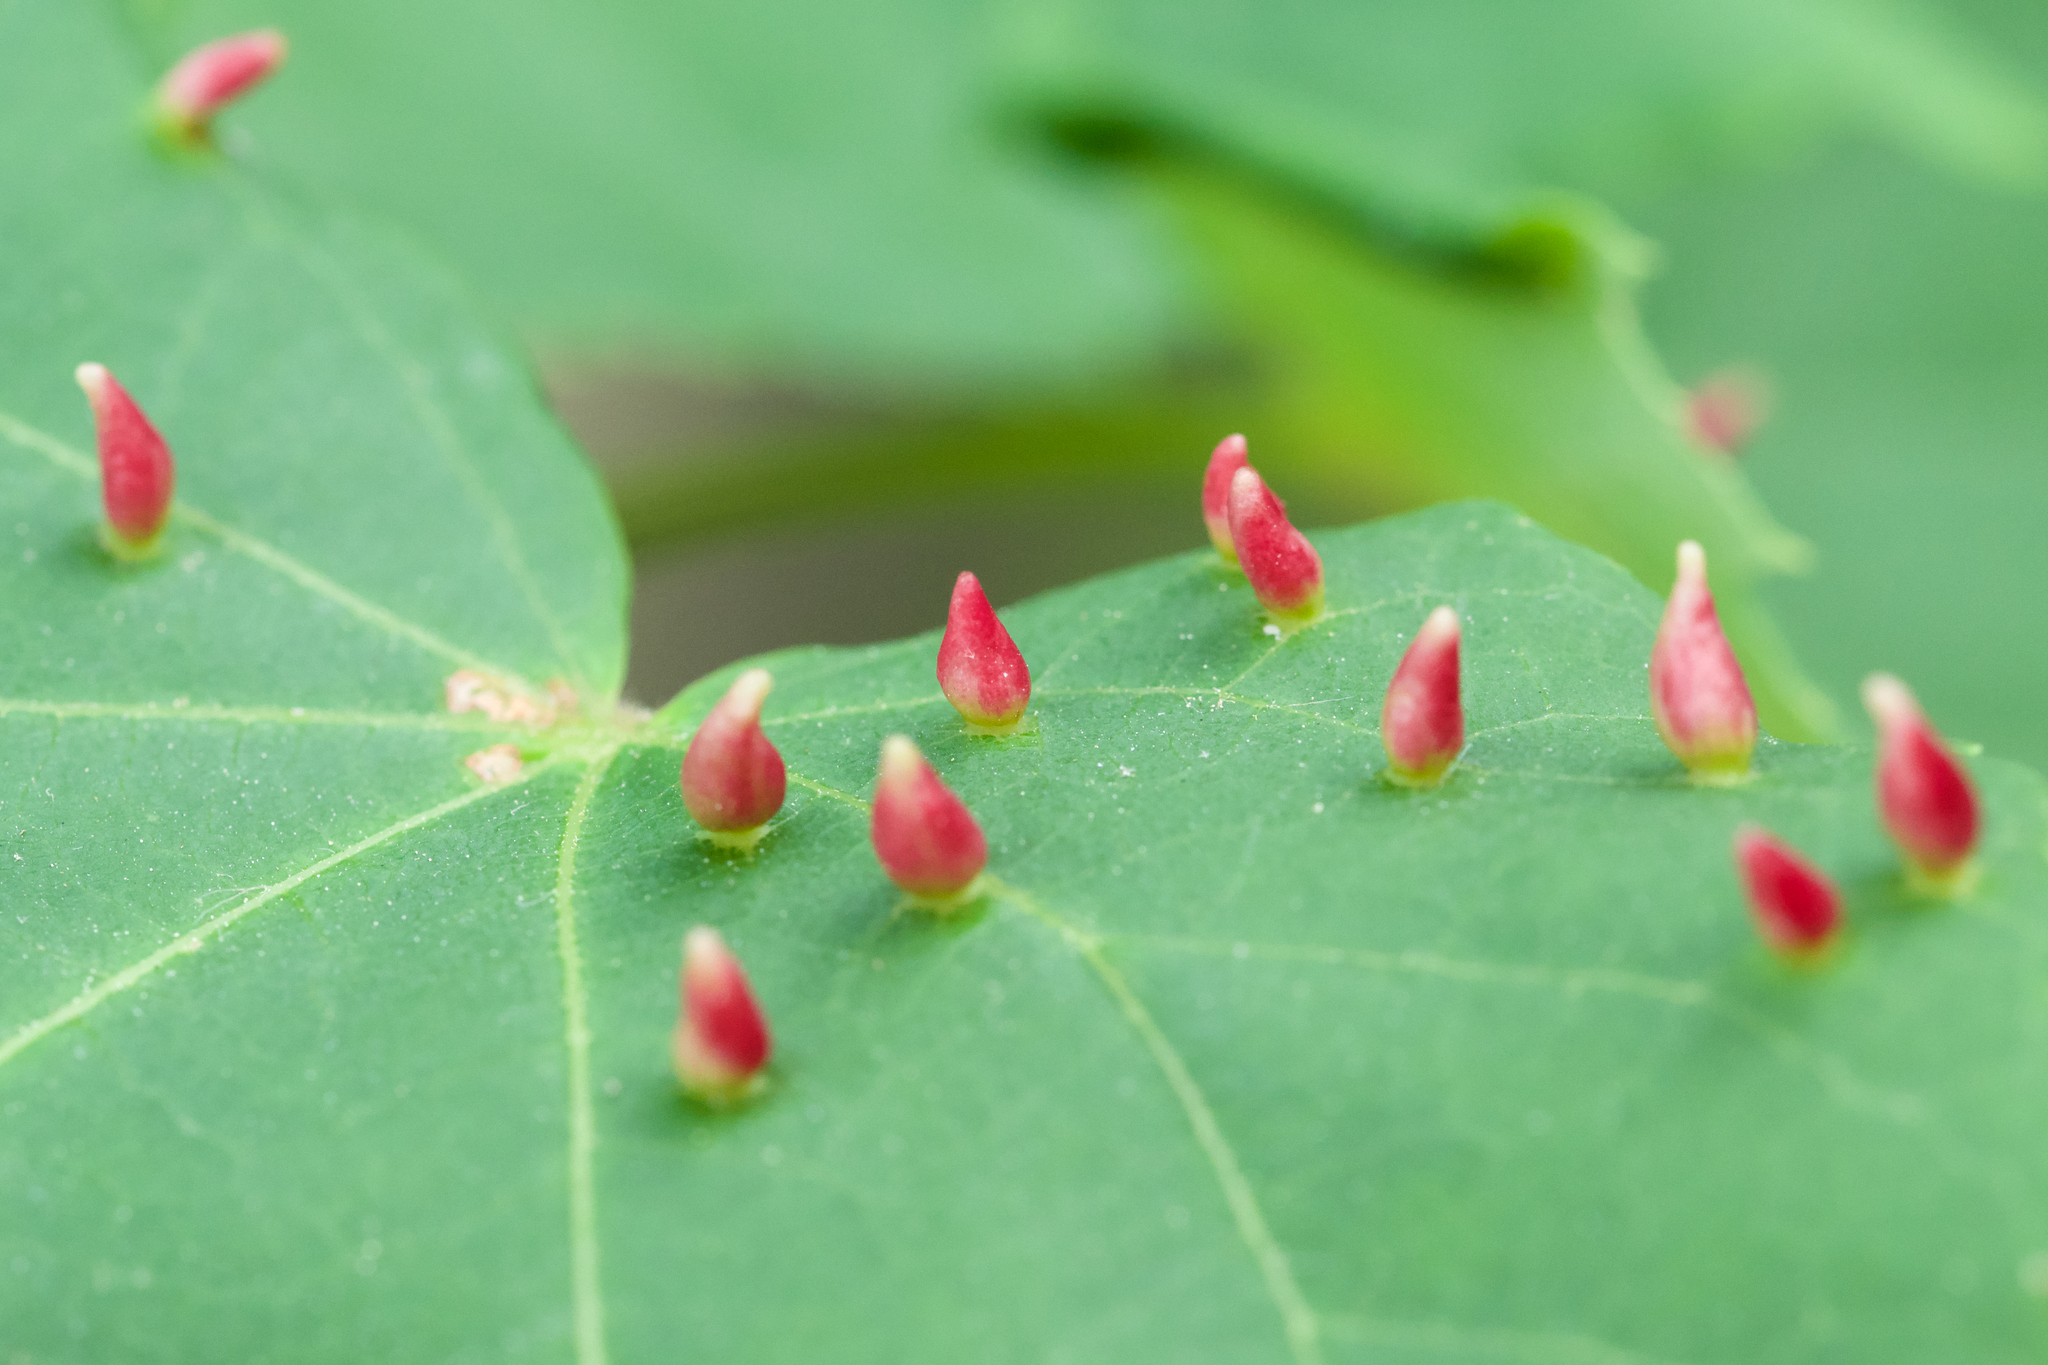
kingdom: Animalia
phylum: Arthropoda
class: Arachnida
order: Trombidiformes
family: Eriophyidae
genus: Eriophyes
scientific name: Eriophyes tiliae
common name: Red nail gall mite
